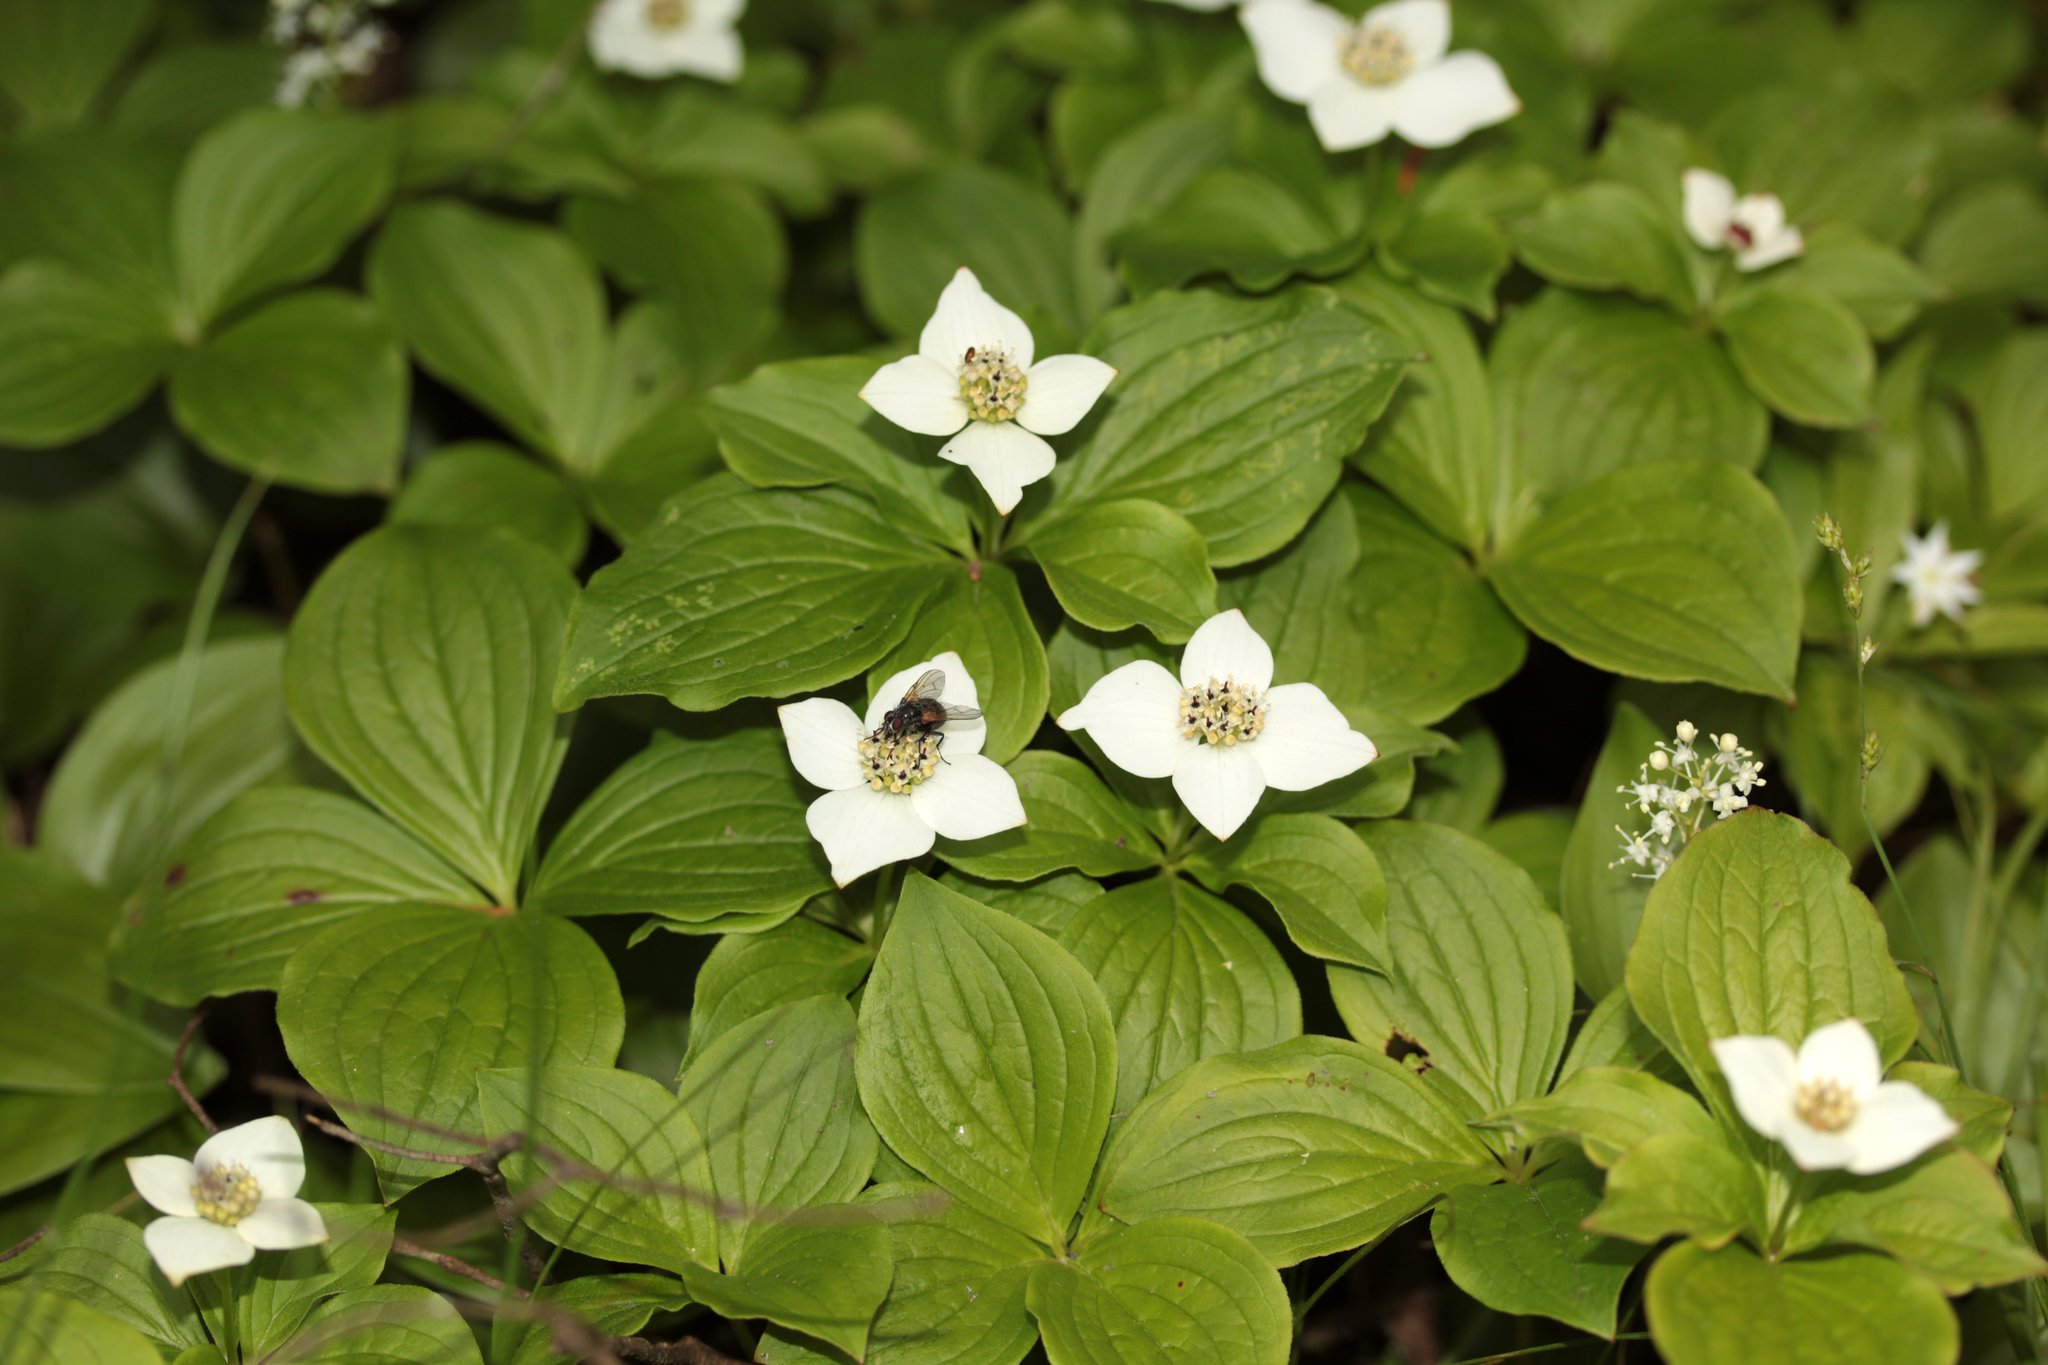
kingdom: Plantae
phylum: Tracheophyta
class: Magnoliopsida
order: Cornales
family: Cornaceae
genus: Cornus
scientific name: Cornus canadensis
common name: Creeping dogwood
